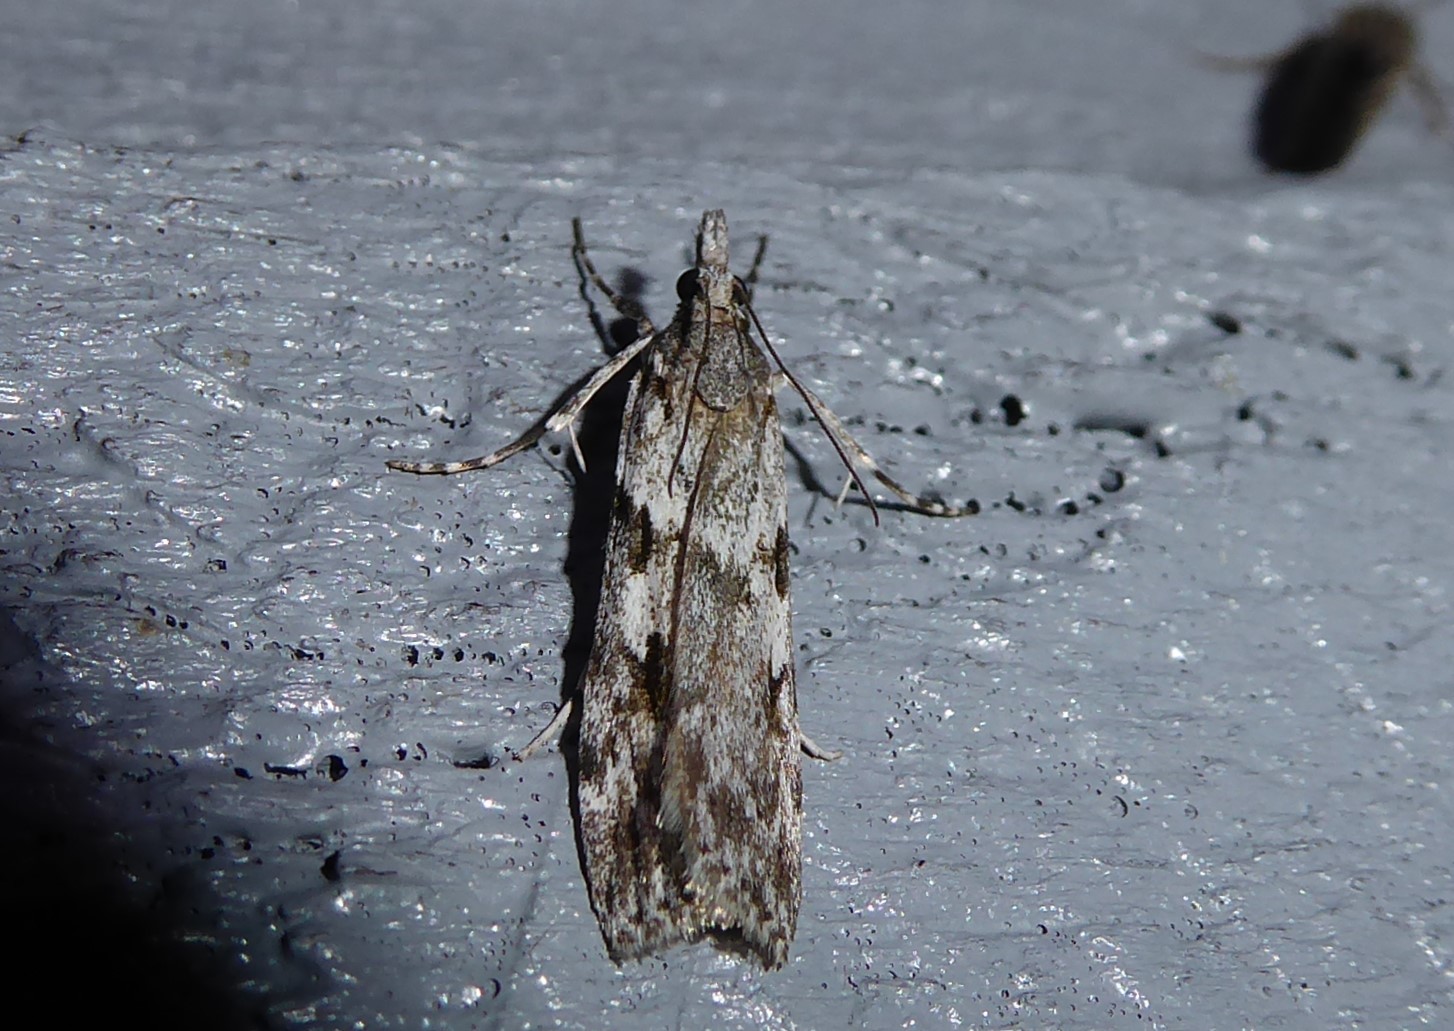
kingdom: Animalia
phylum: Arthropoda
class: Insecta
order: Lepidoptera
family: Crambidae
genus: Scoparia
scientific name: Scoparia halopis
